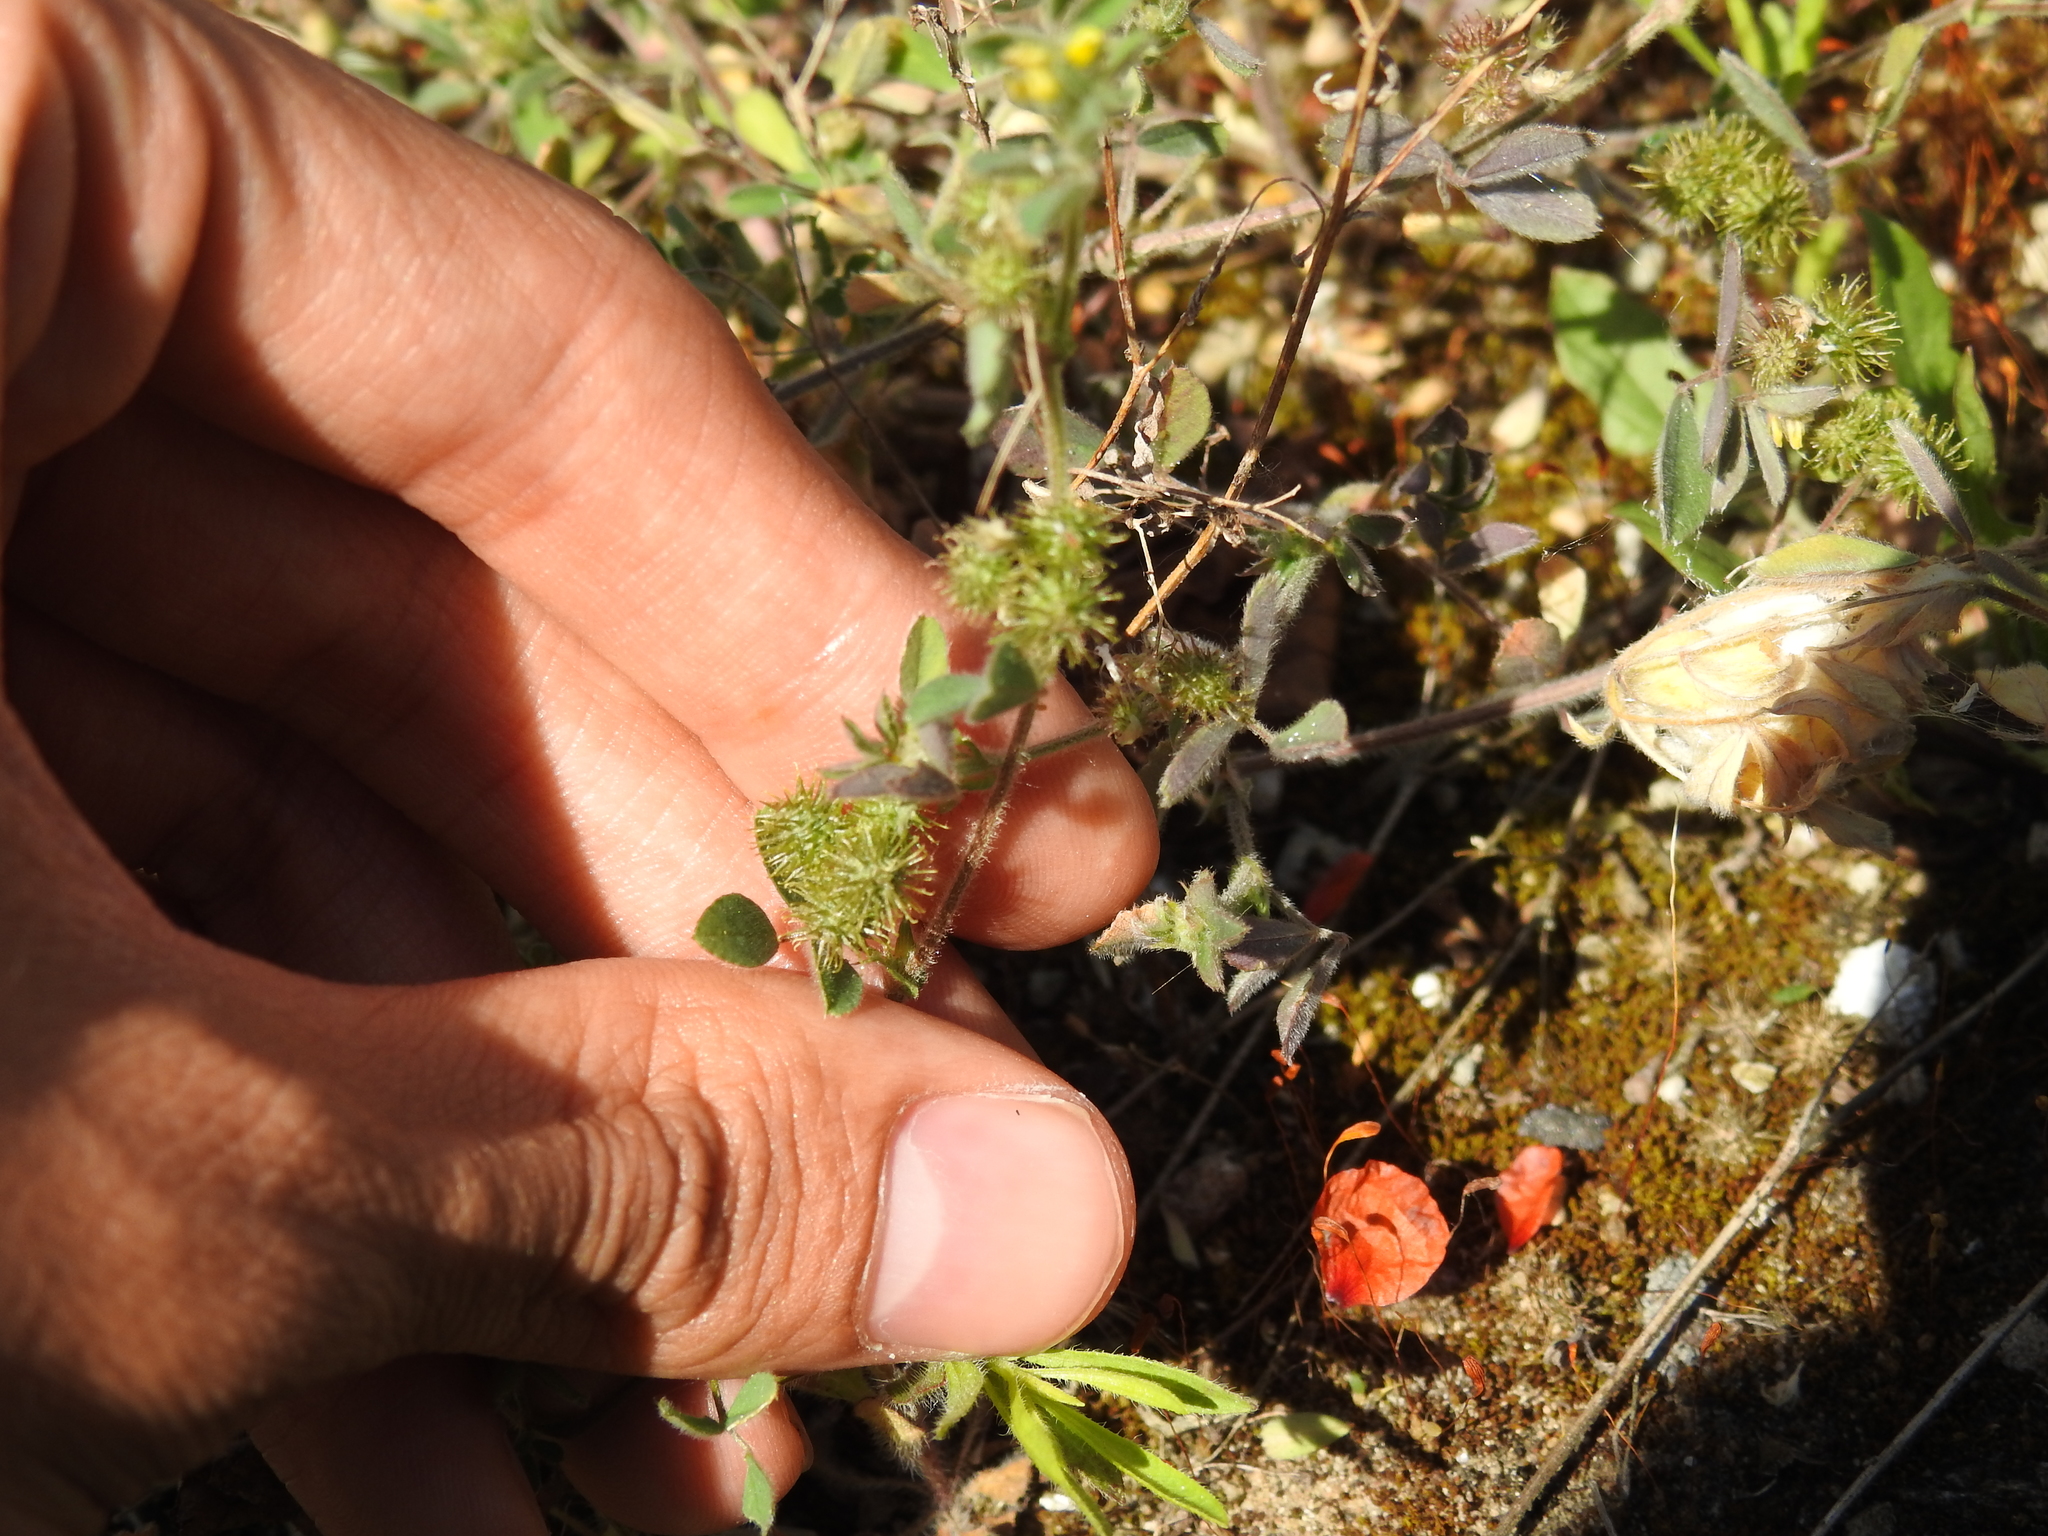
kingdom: Plantae
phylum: Tracheophyta
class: Magnoliopsida
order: Fabales
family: Fabaceae
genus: Medicago
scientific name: Medicago minima
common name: Little bur-clover
